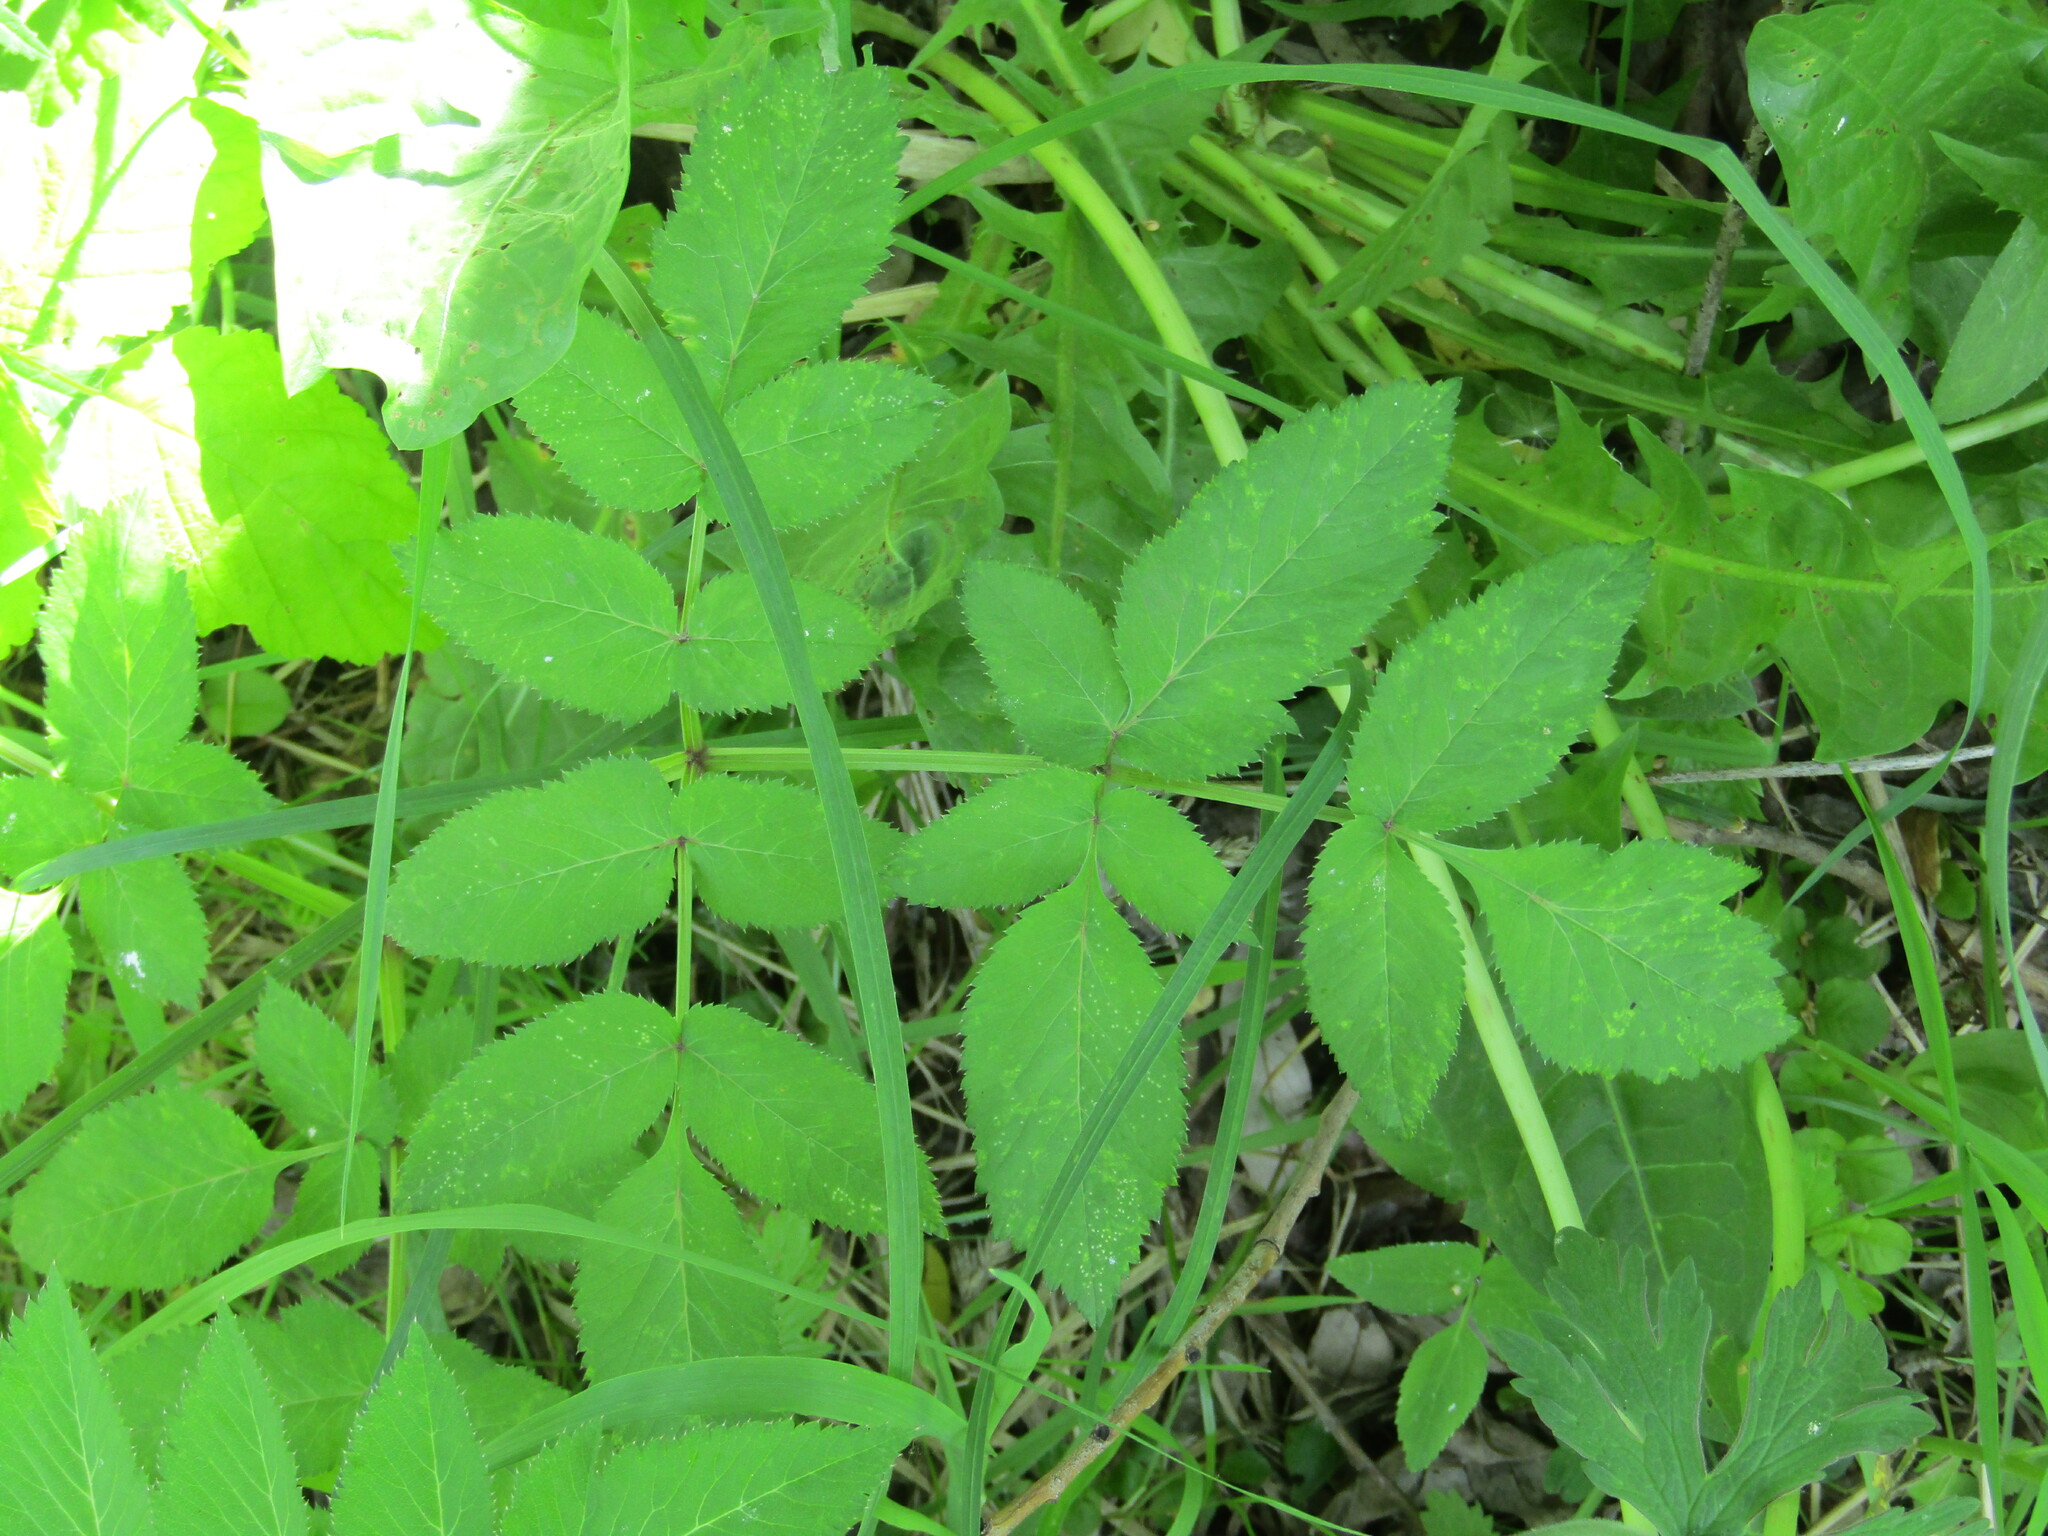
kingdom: Plantae
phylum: Tracheophyta
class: Magnoliopsida
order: Apiales
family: Apiaceae
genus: Angelica
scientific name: Angelica sylvestris
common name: Wild angelica
